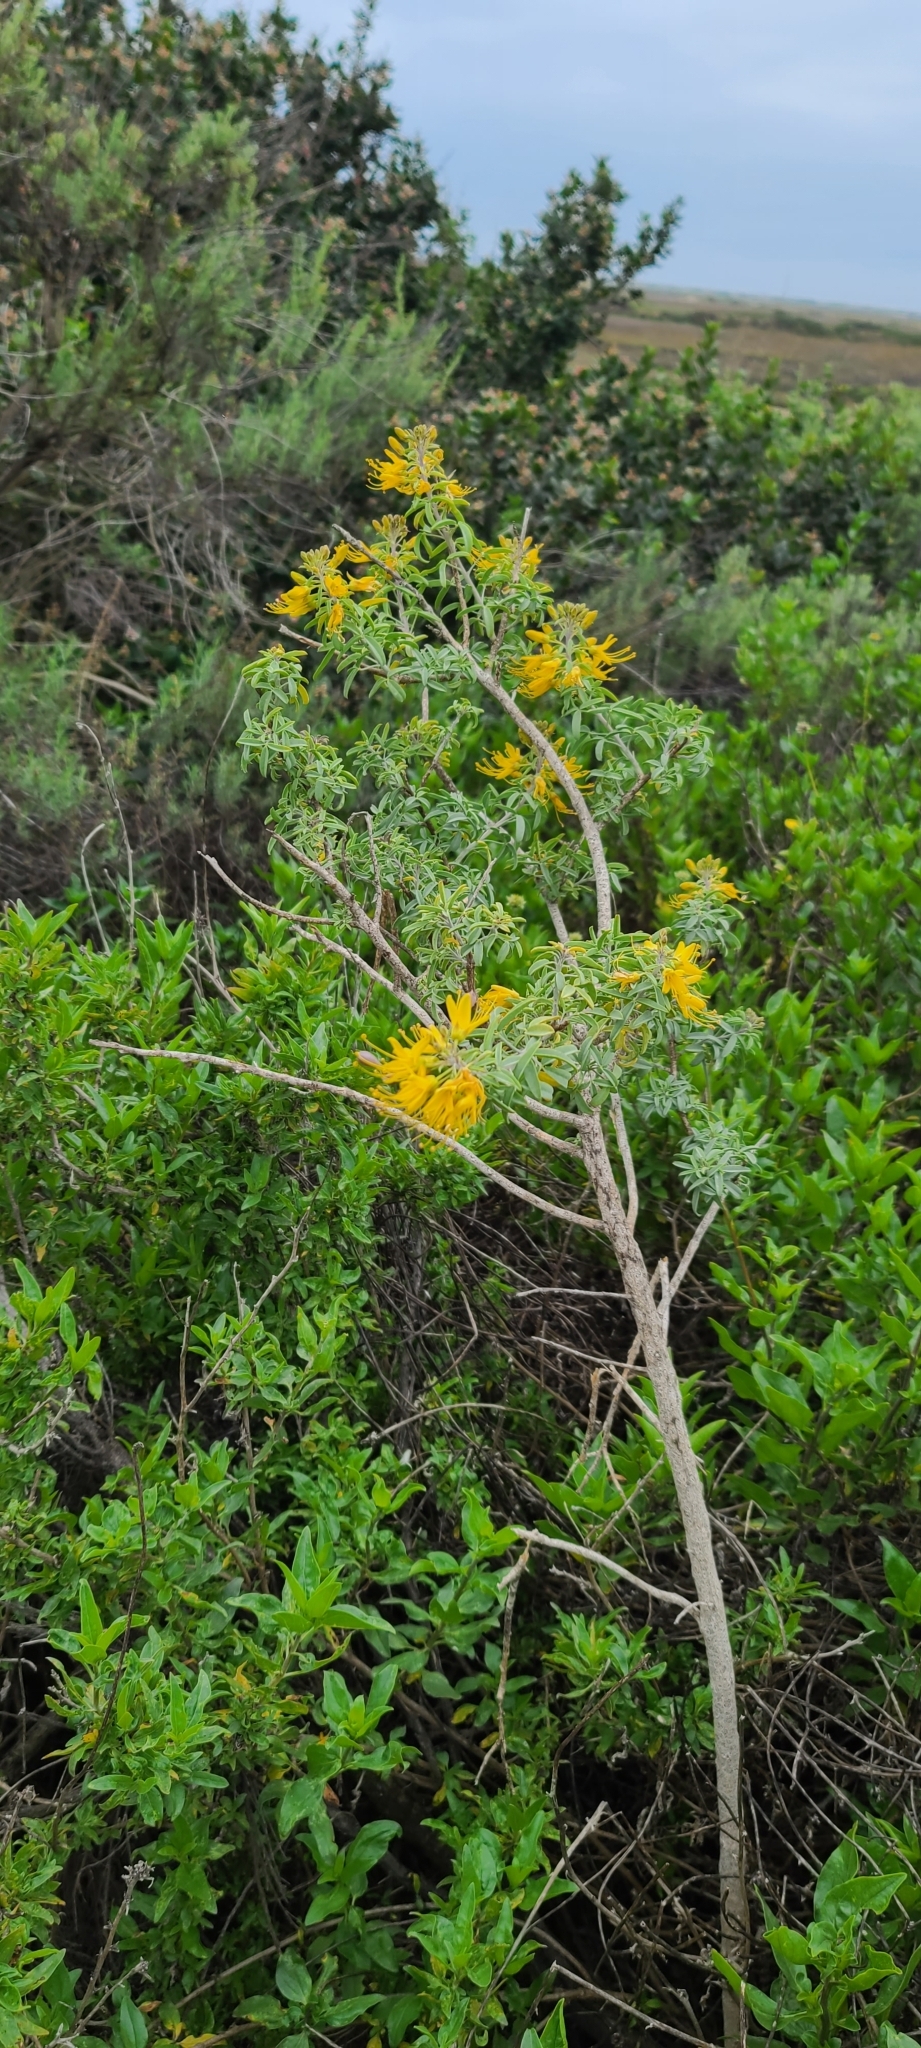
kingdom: Plantae
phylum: Tracheophyta
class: Magnoliopsida
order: Brassicales
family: Cleomaceae
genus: Cleomella
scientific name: Cleomella arborea
